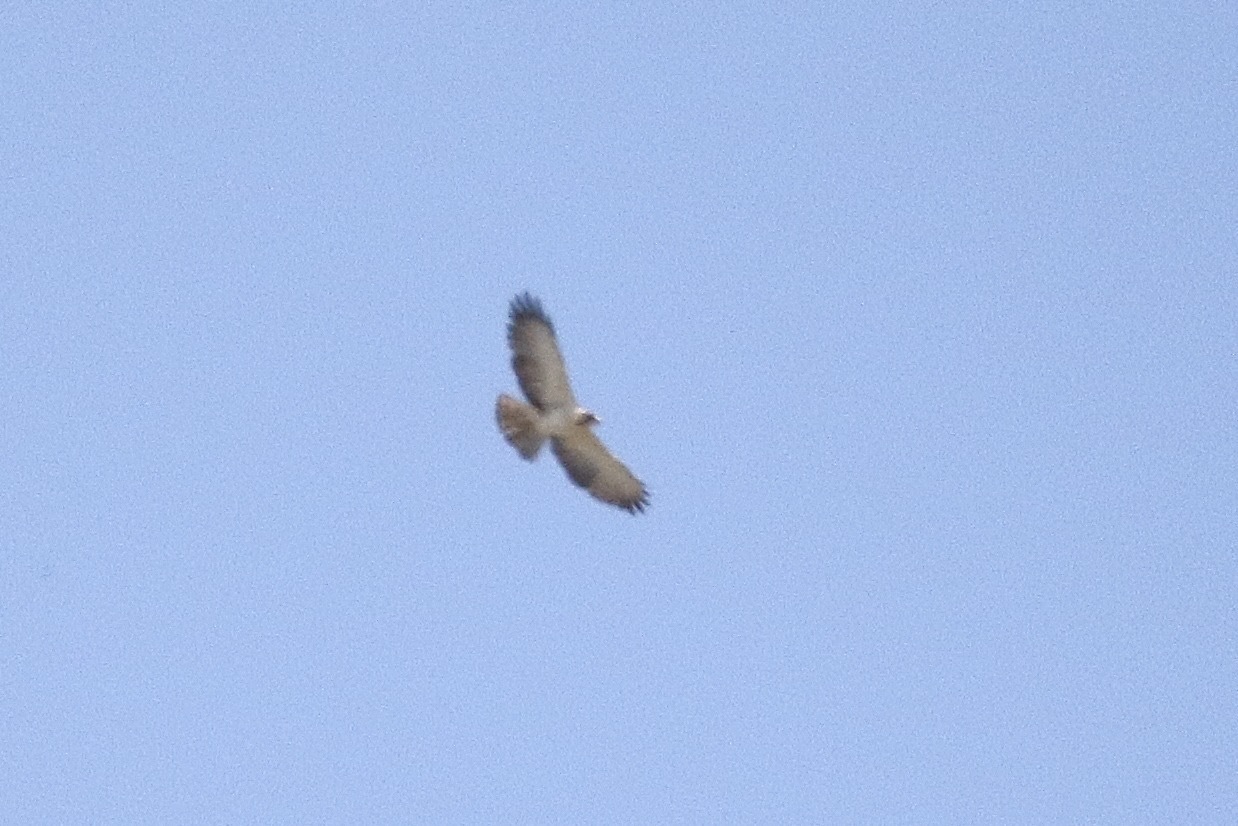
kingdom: Animalia
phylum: Chordata
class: Aves
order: Accipitriformes
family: Accipitridae
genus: Buteo
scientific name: Buteo brachyurus
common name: Short-tailed hawk
